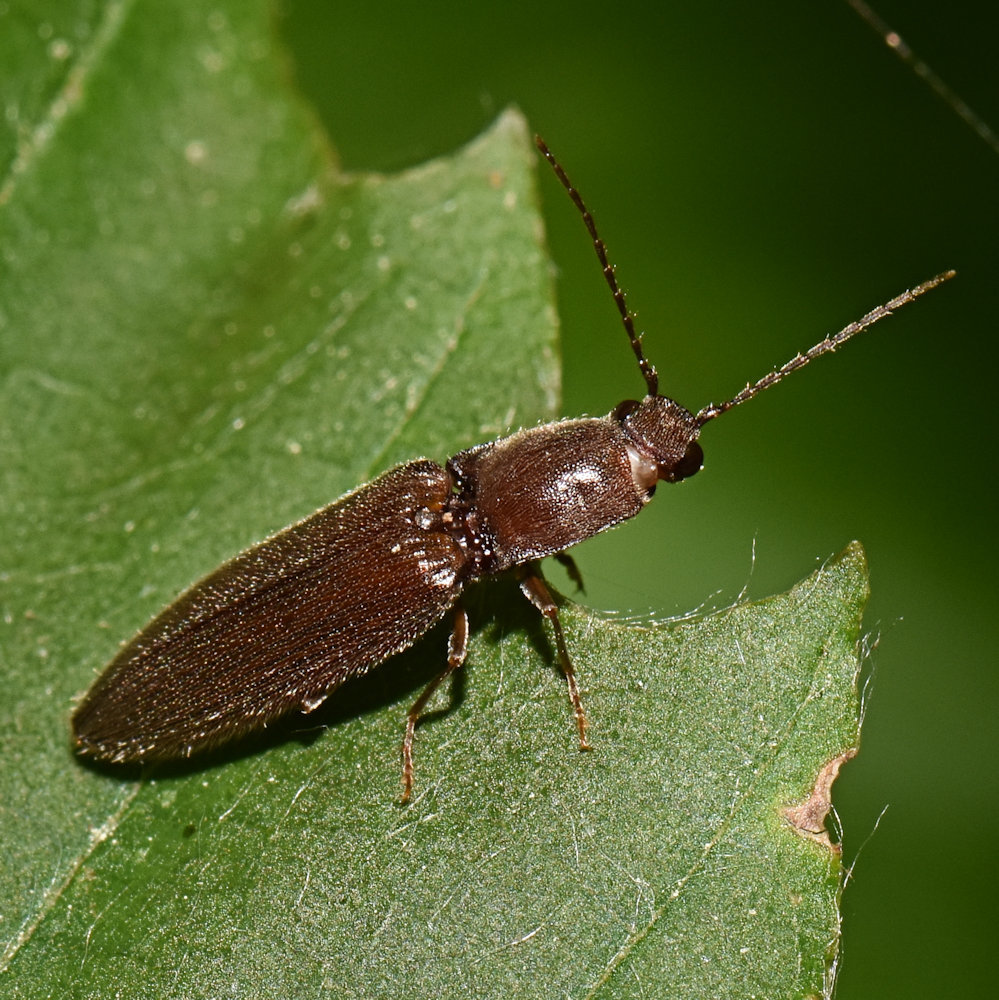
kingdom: Animalia
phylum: Arthropoda
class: Insecta
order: Coleoptera
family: Elateridae
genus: Athous
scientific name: Athous brightwelli
